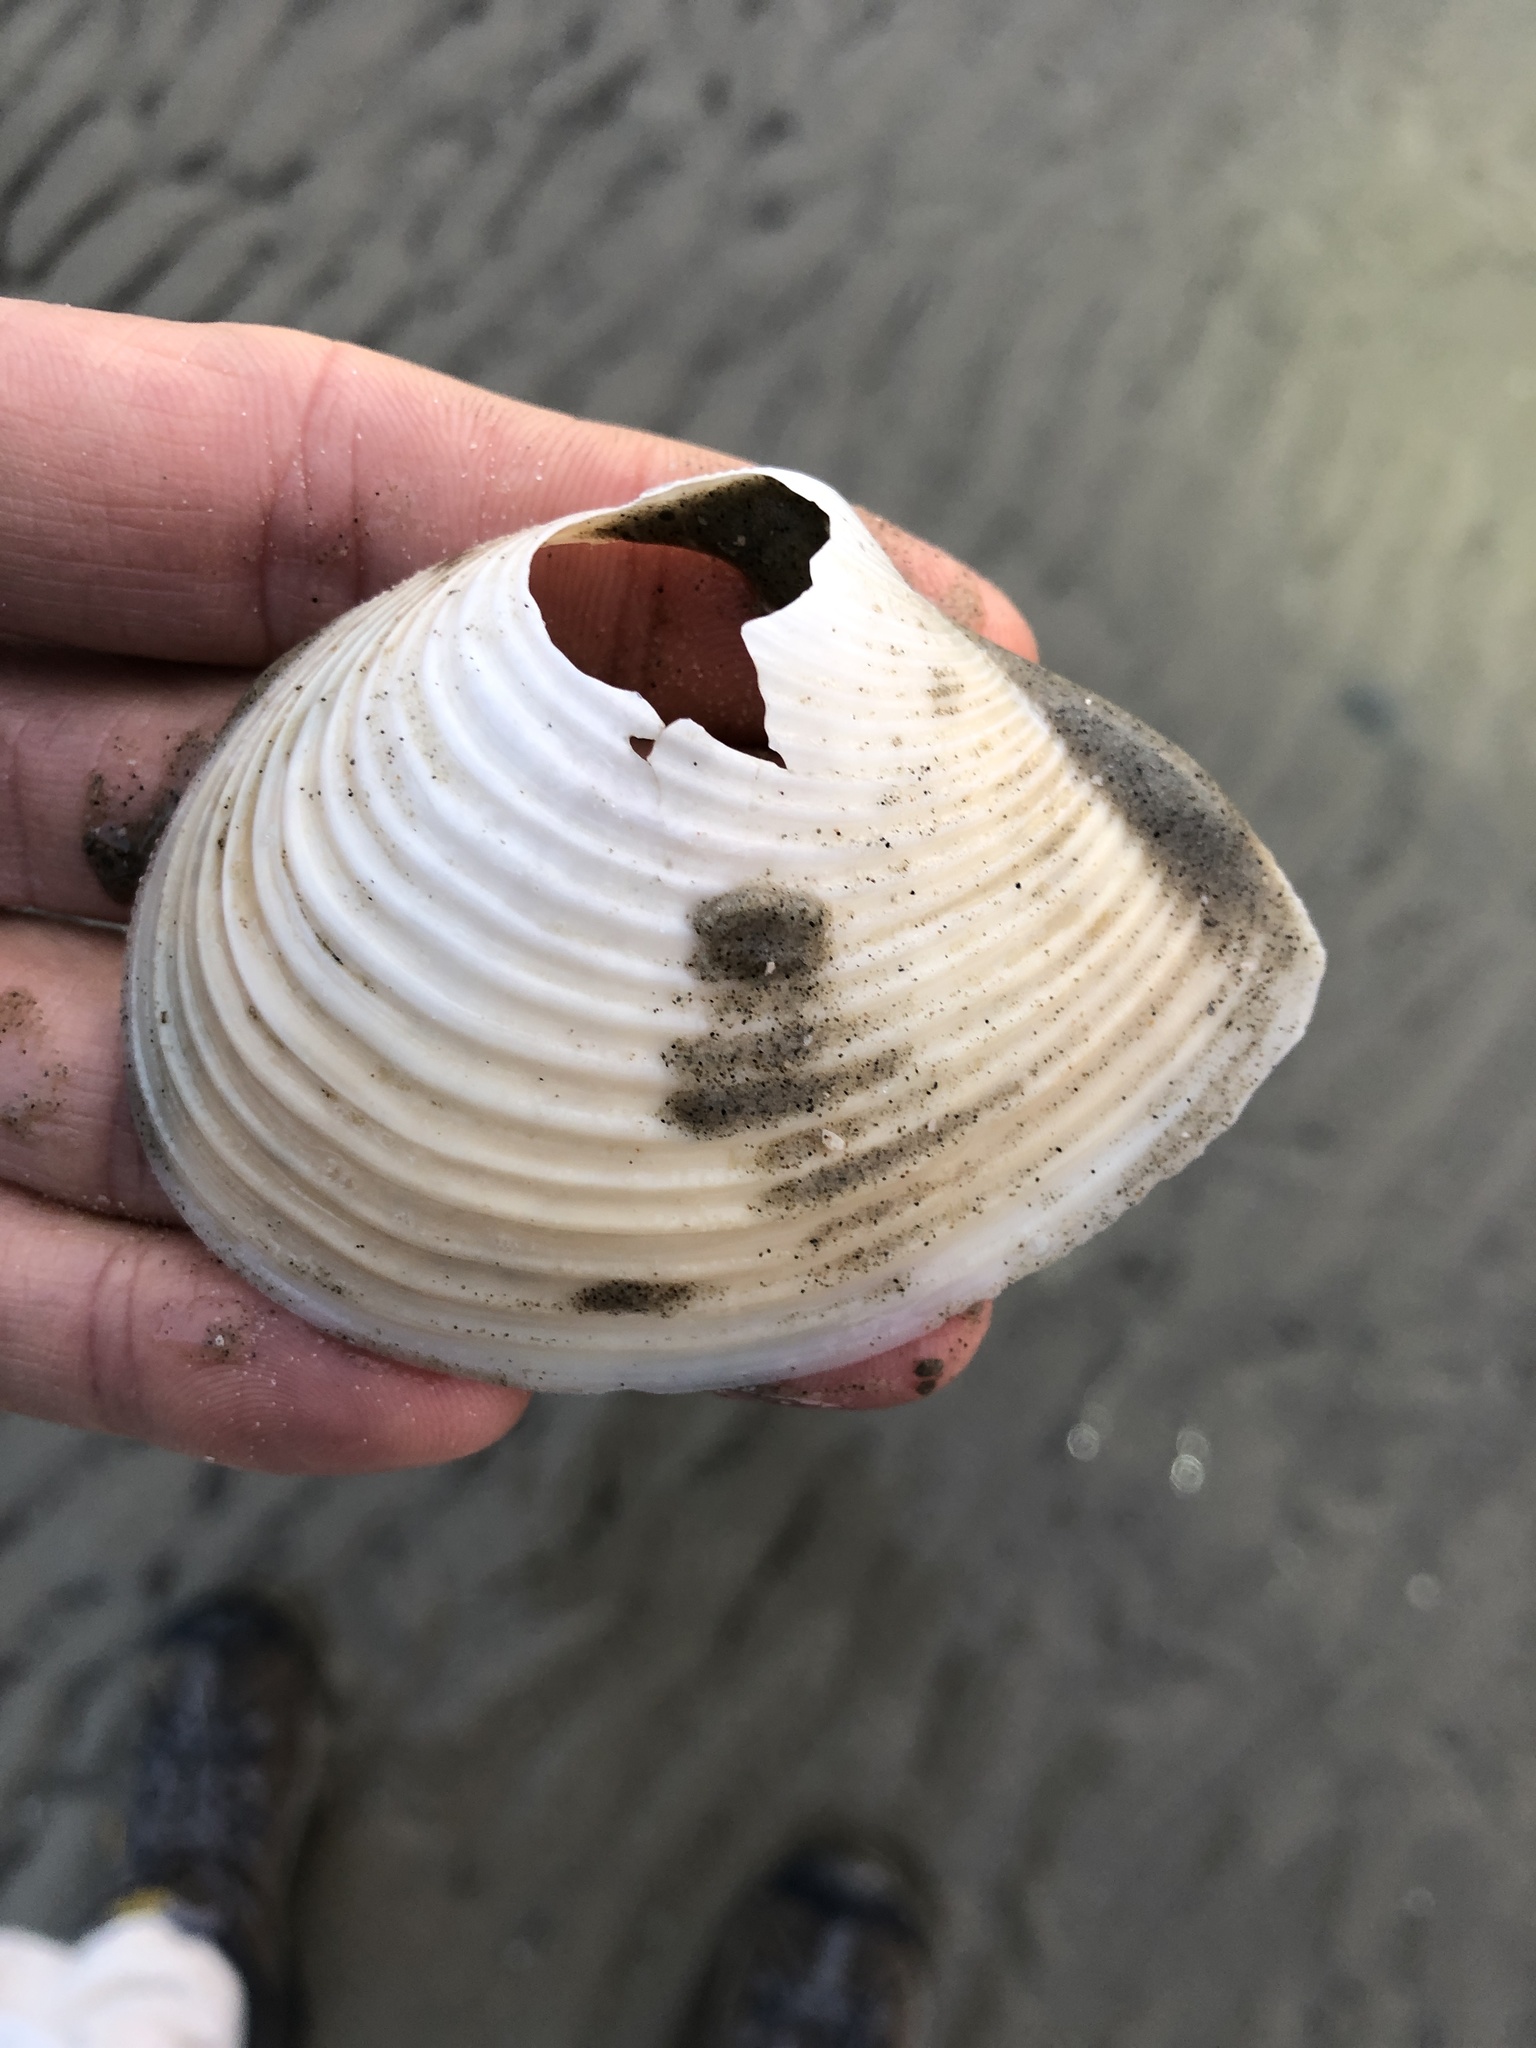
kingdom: Animalia
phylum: Mollusca
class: Bivalvia
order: Venerida
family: Anatinellidae
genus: Raeta
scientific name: Raeta plicatella
